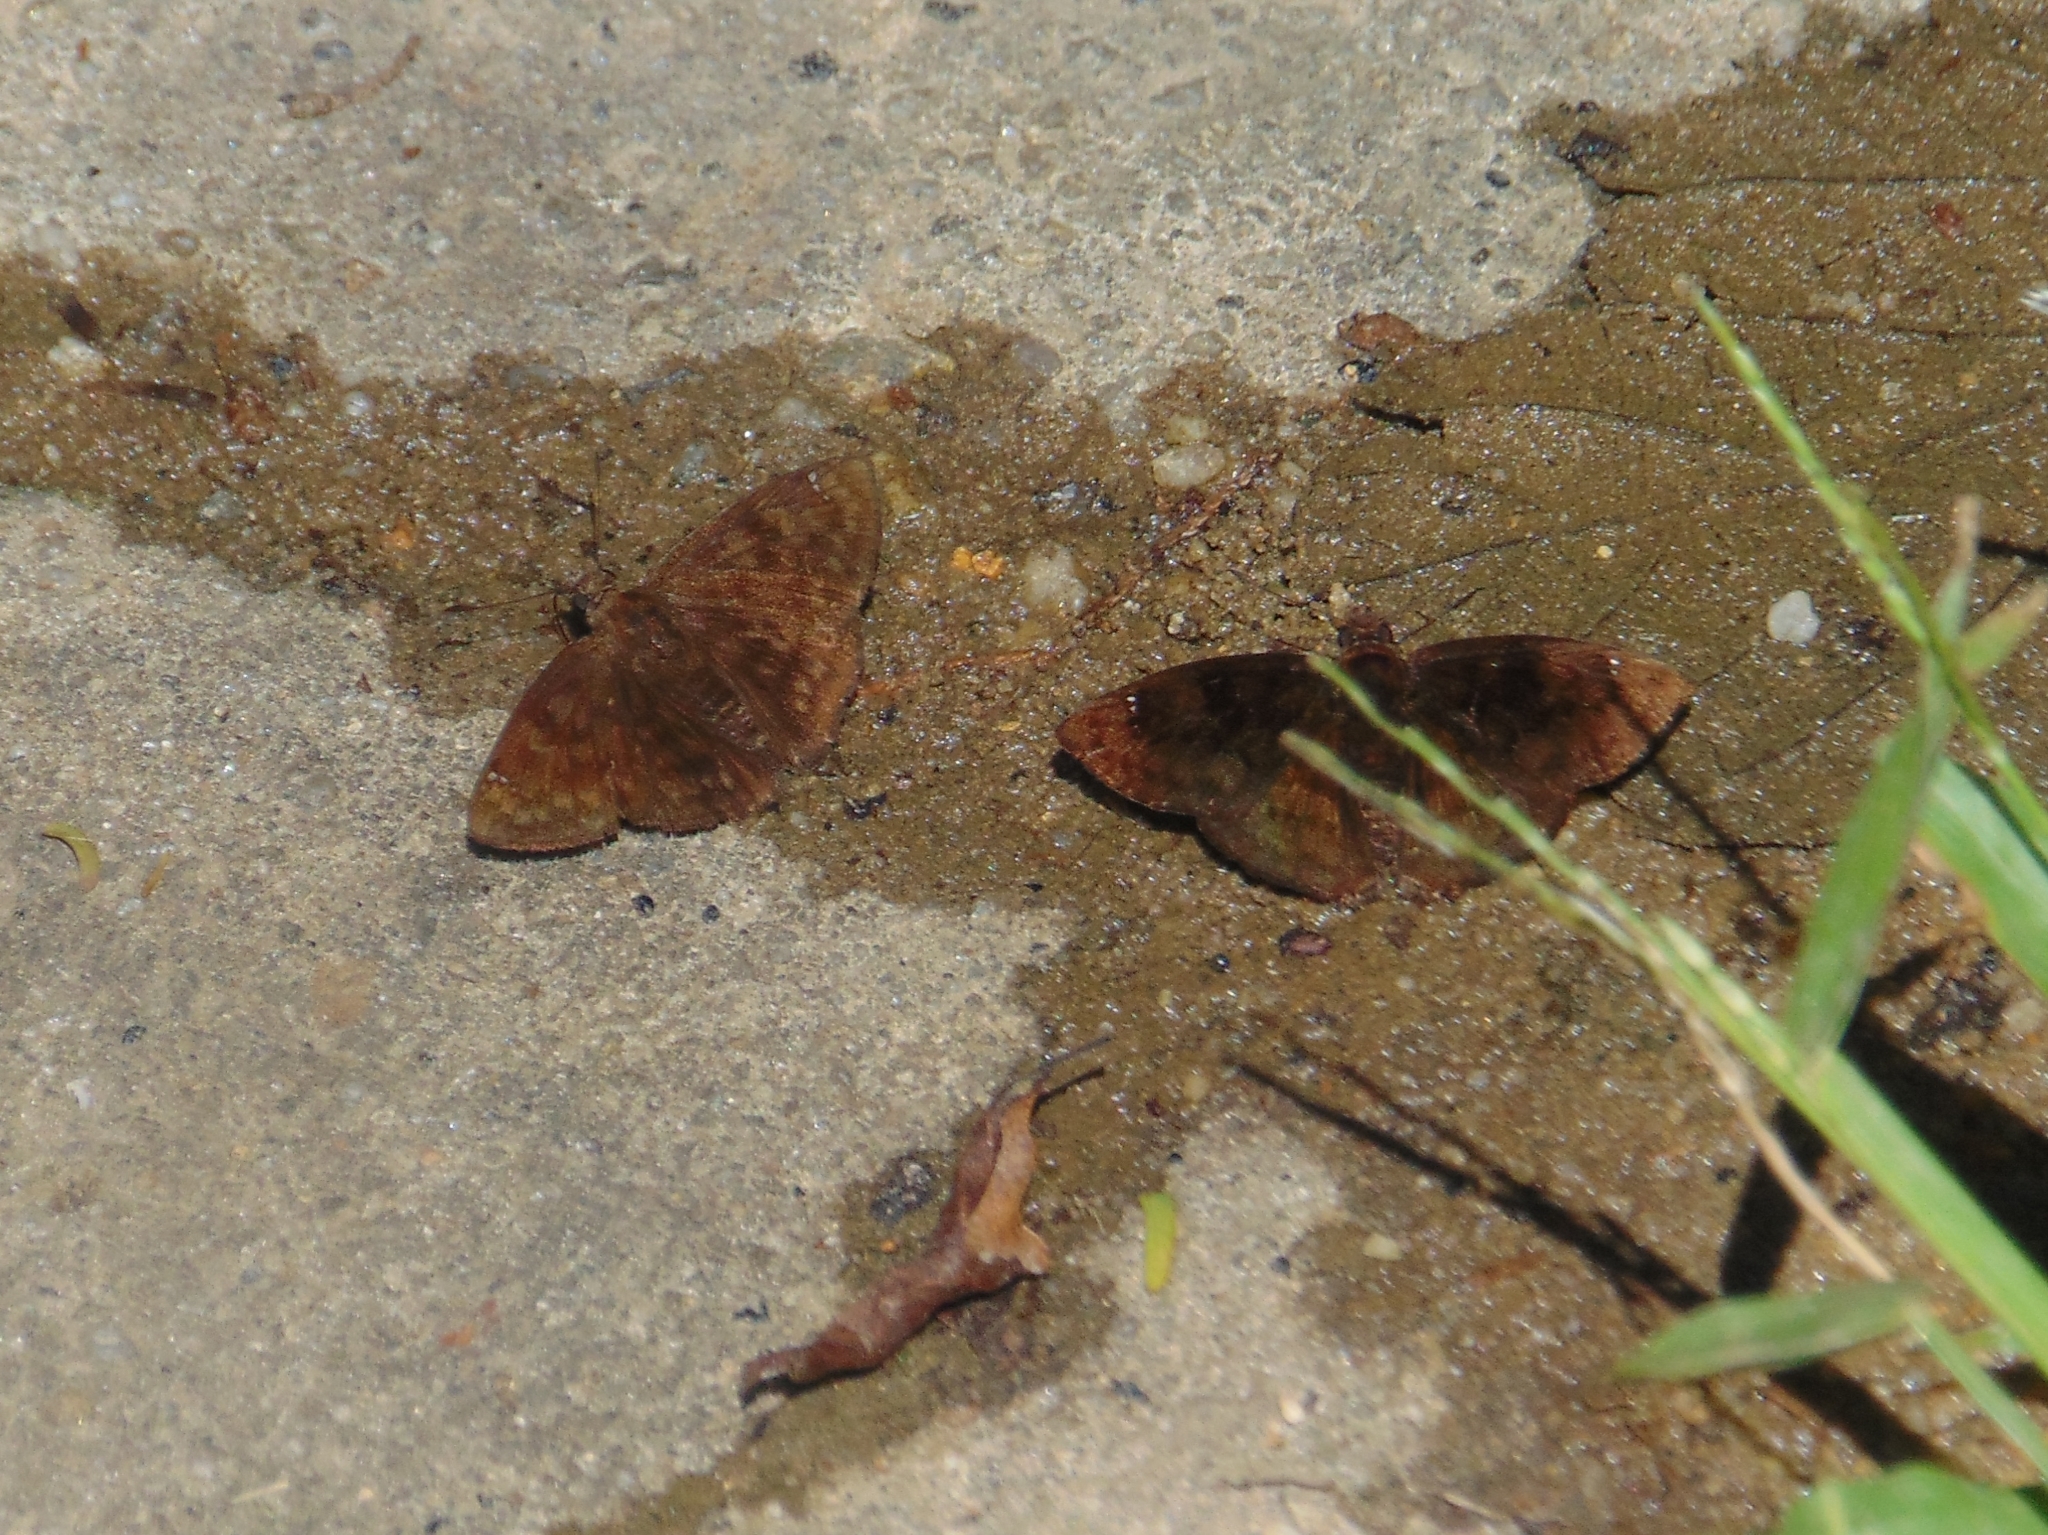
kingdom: Animalia
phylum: Arthropoda
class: Insecta
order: Lepidoptera
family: Hesperiidae
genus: Nisoniades
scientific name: Nisoniades castolus
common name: Castolus tufted-skipper
